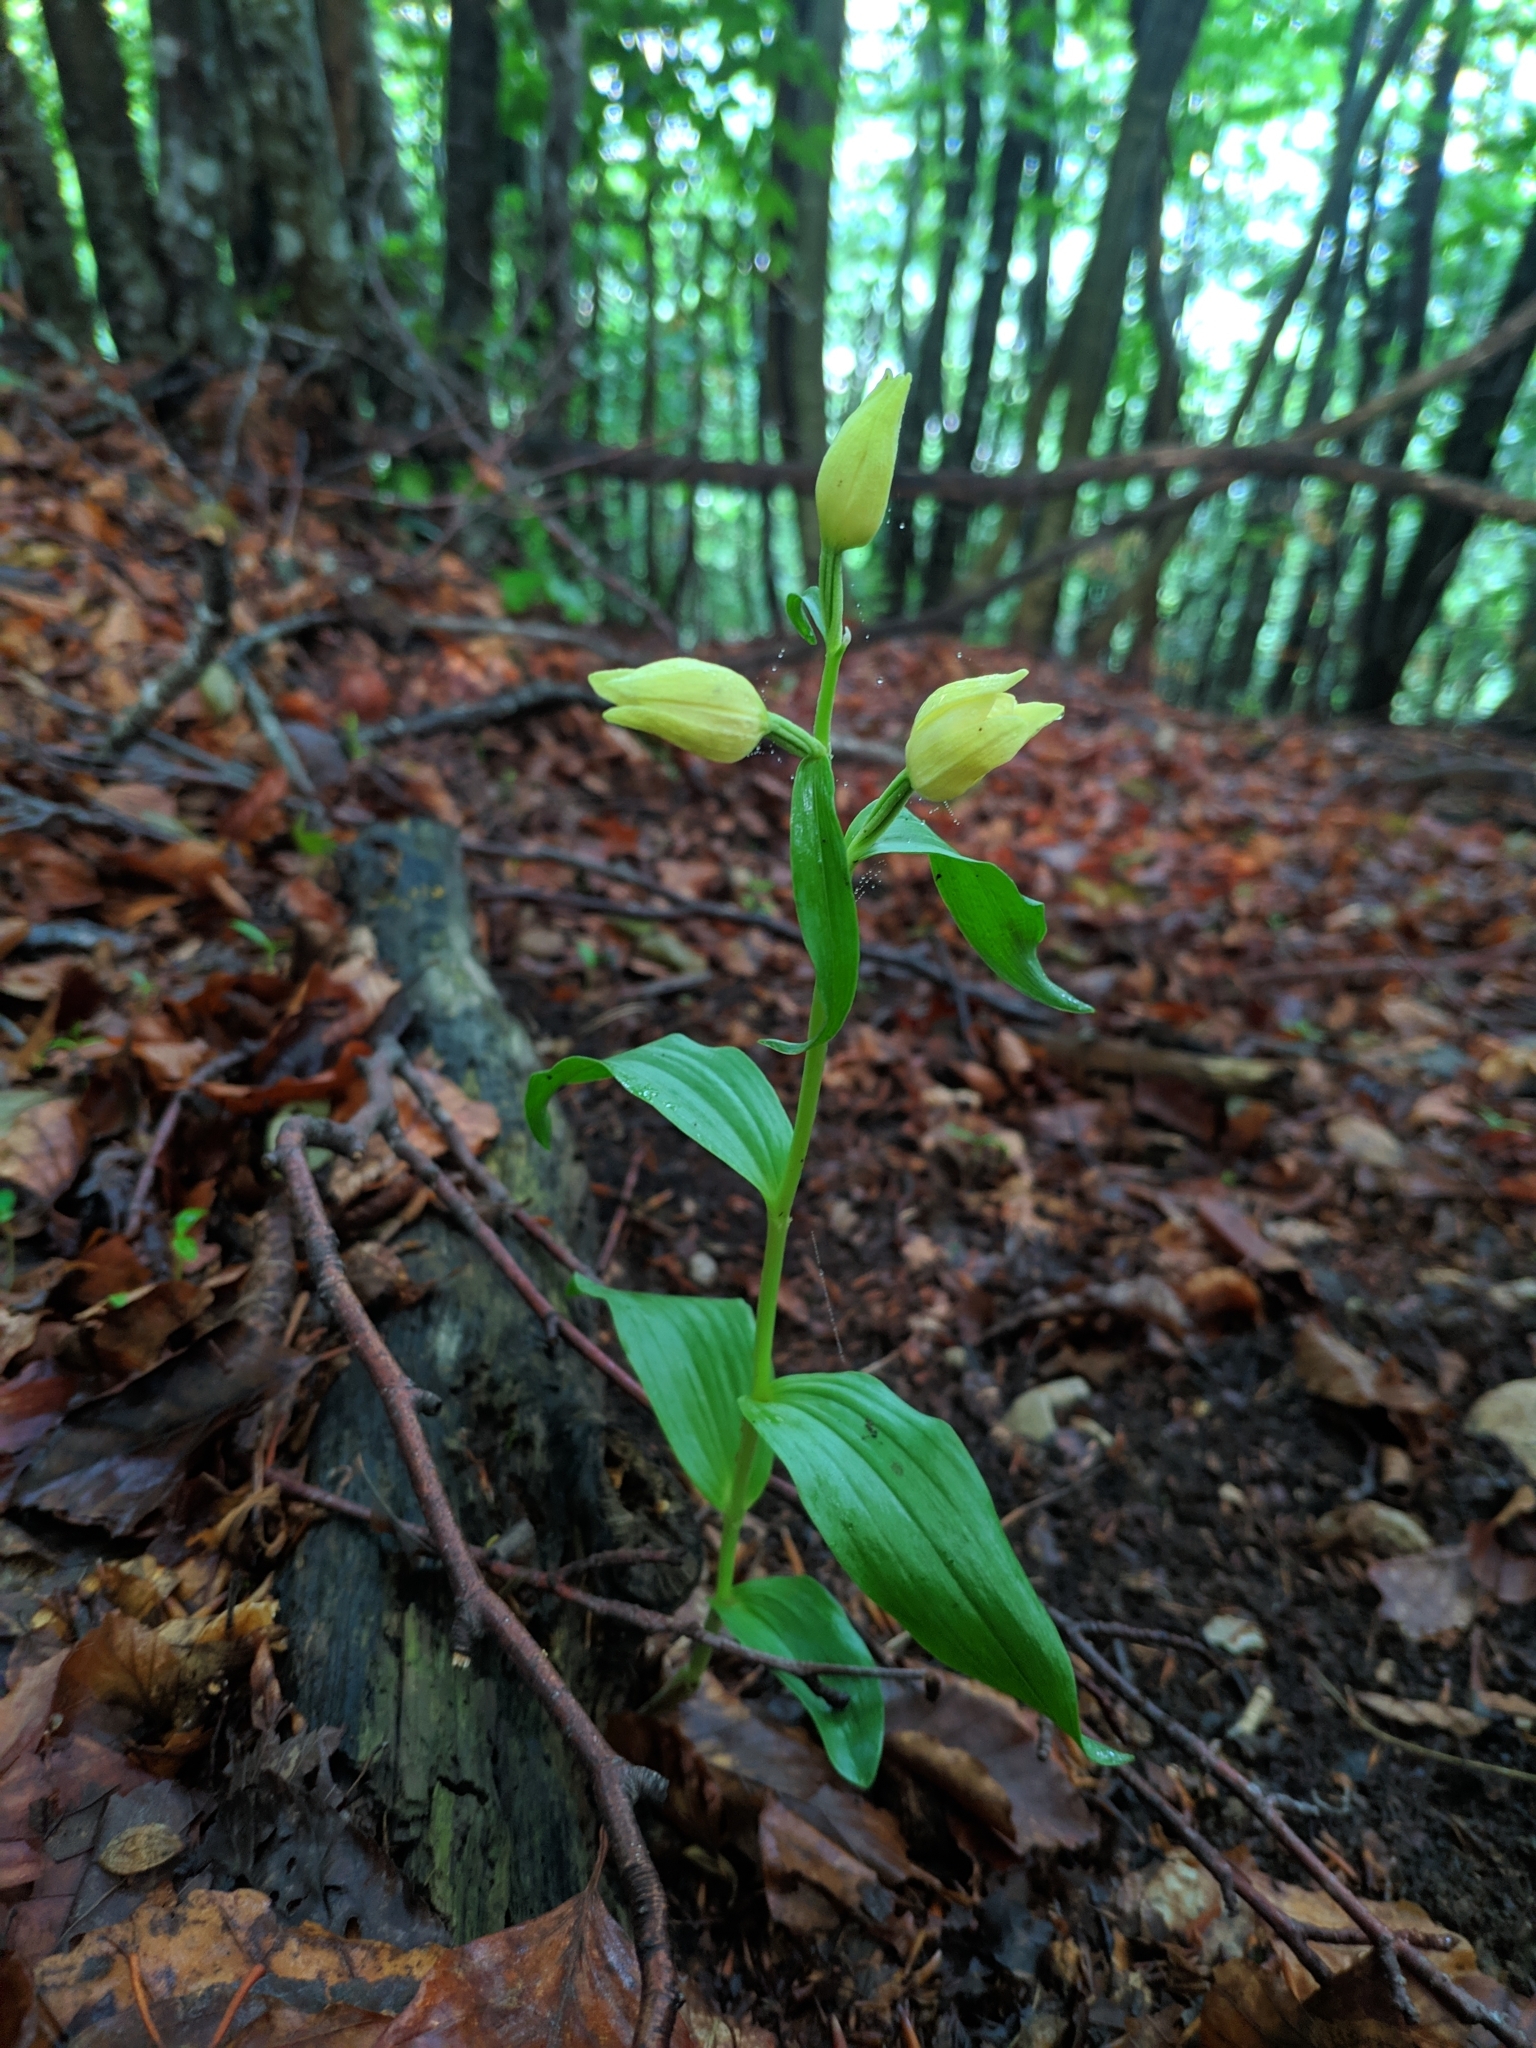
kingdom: Plantae
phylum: Tracheophyta
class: Liliopsida
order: Asparagales
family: Orchidaceae
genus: Cephalanthera
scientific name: Cephalanthera damasonium
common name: White helleborine
